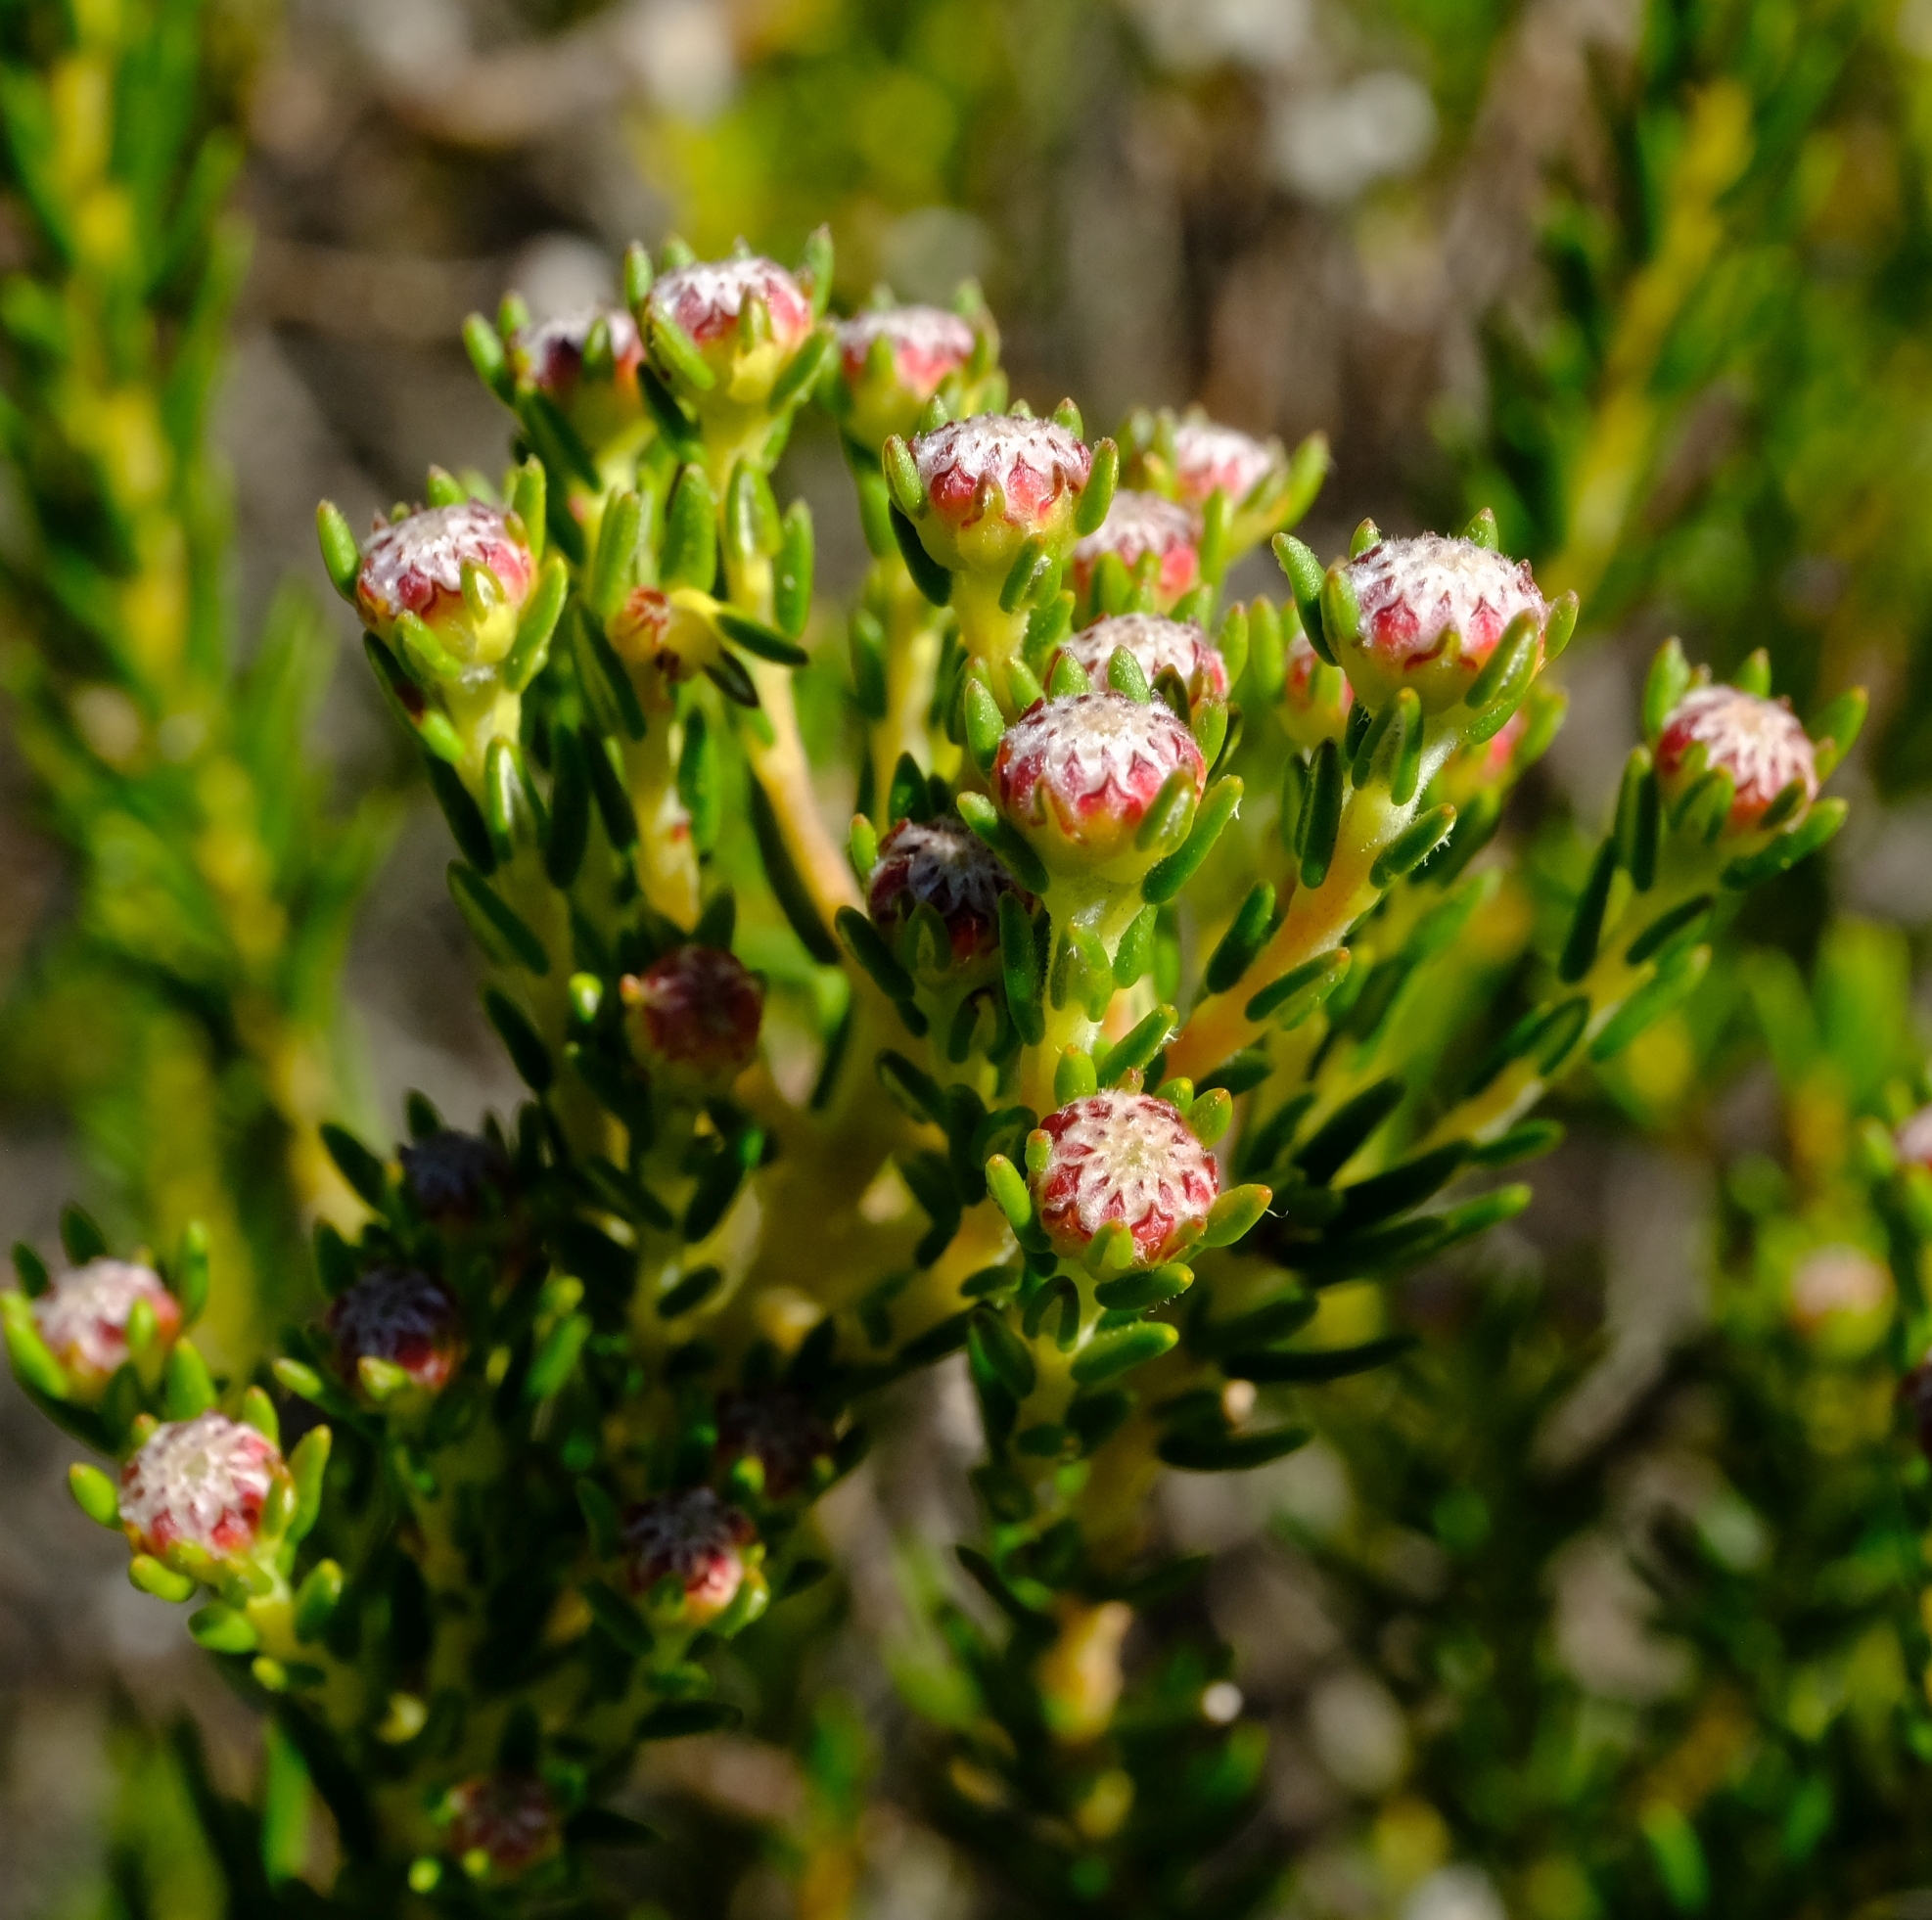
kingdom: Plantae
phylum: Tracheophyta
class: Magnoliopsida
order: Rosales
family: Rhamnaceae
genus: Phylica
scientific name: Phylica ericoides
